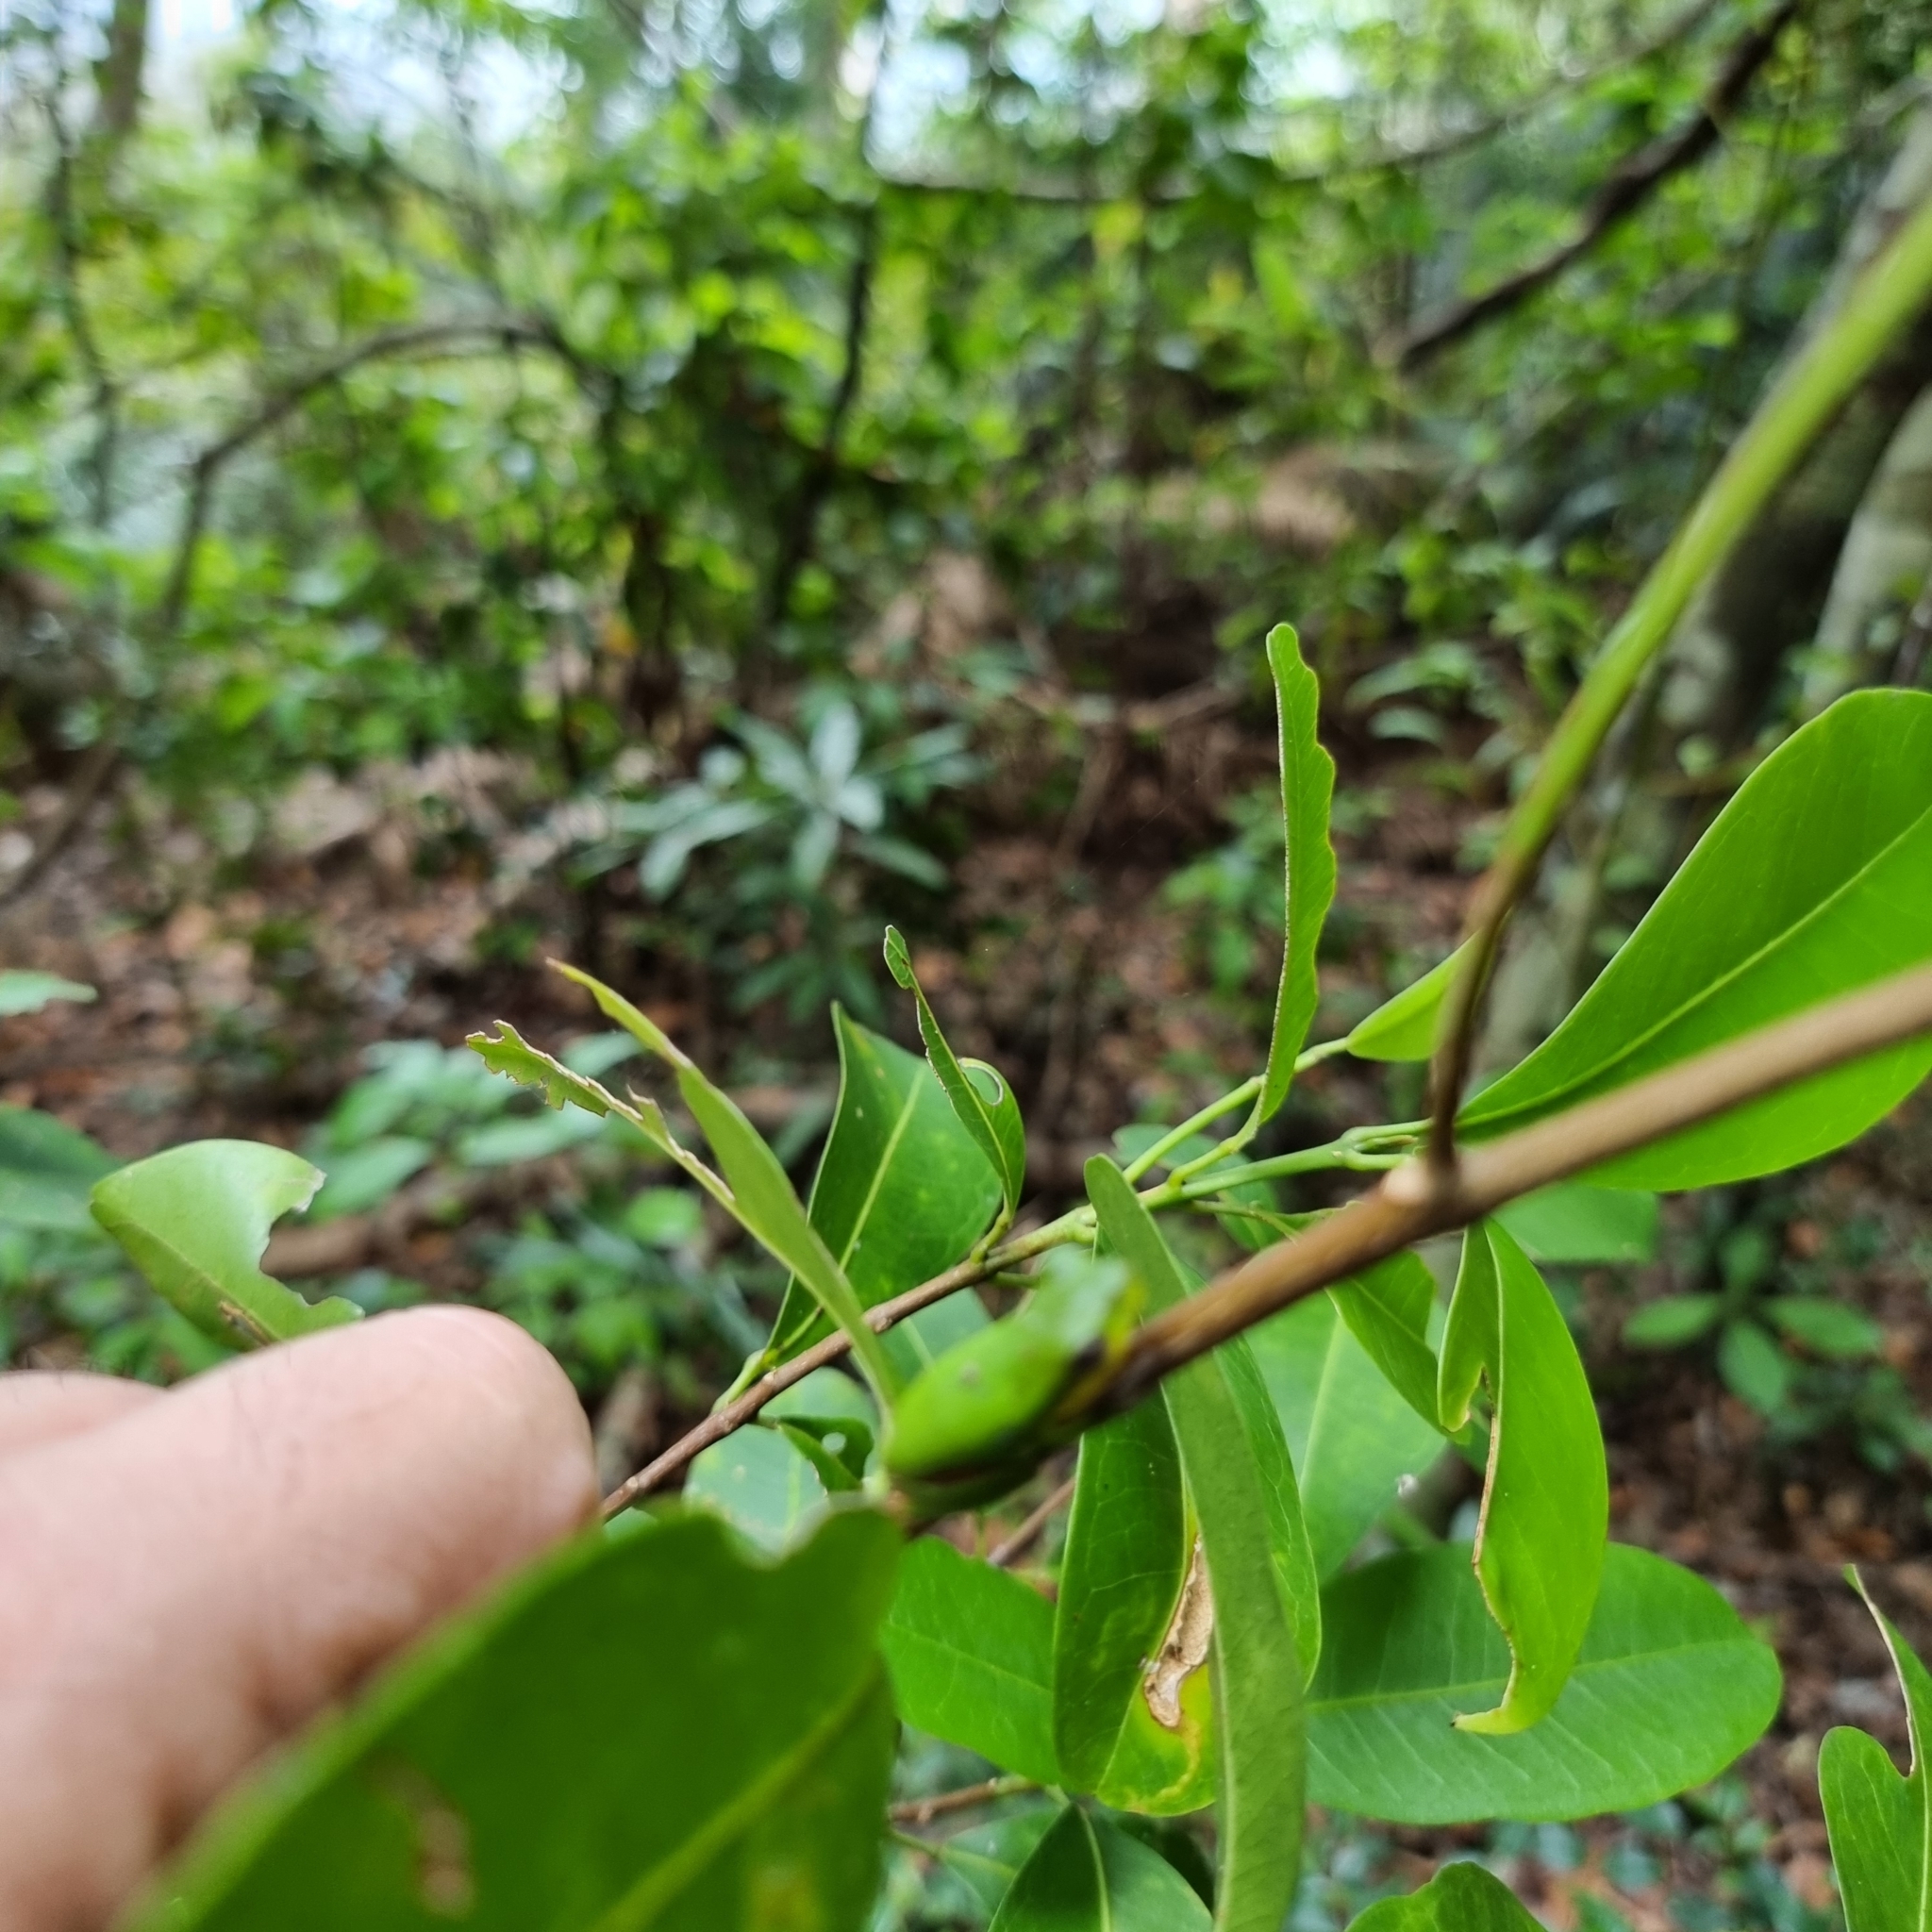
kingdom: Animalia
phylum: Chordata
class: Amphibia
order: Anura
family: Pelodryadidae
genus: Litoria
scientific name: Litoria cooloolensis
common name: Cooloola sedgefrog
